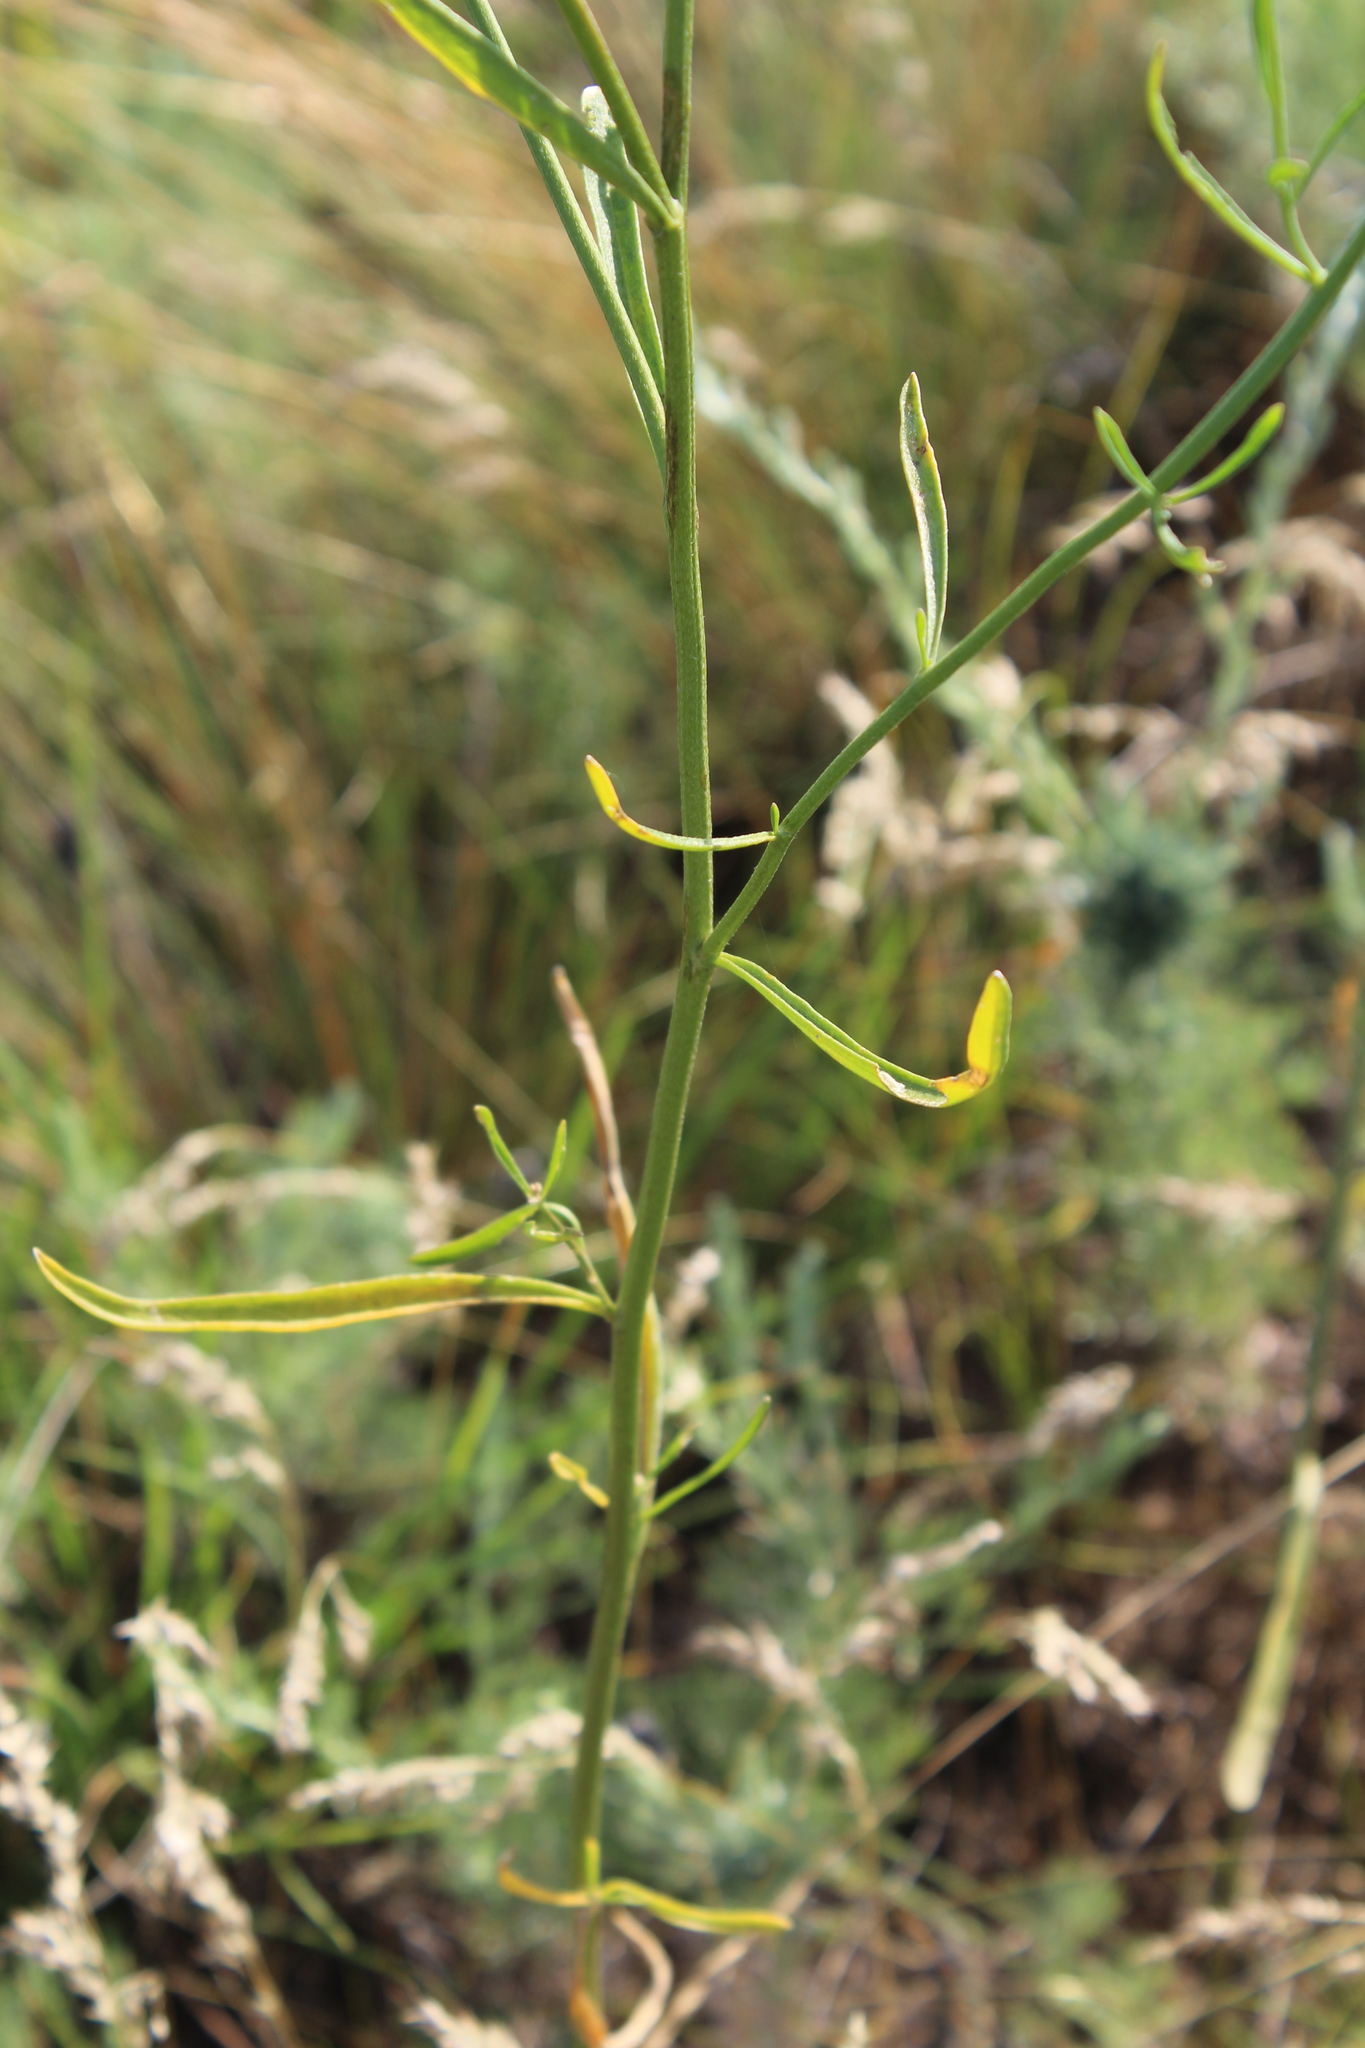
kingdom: Plantae
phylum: Tracheophyta
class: Magnoliopsida
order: Brassicales
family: Brassicaceae
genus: Erysimum
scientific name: Erysimum diffusum
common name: Diffuse wallflower
